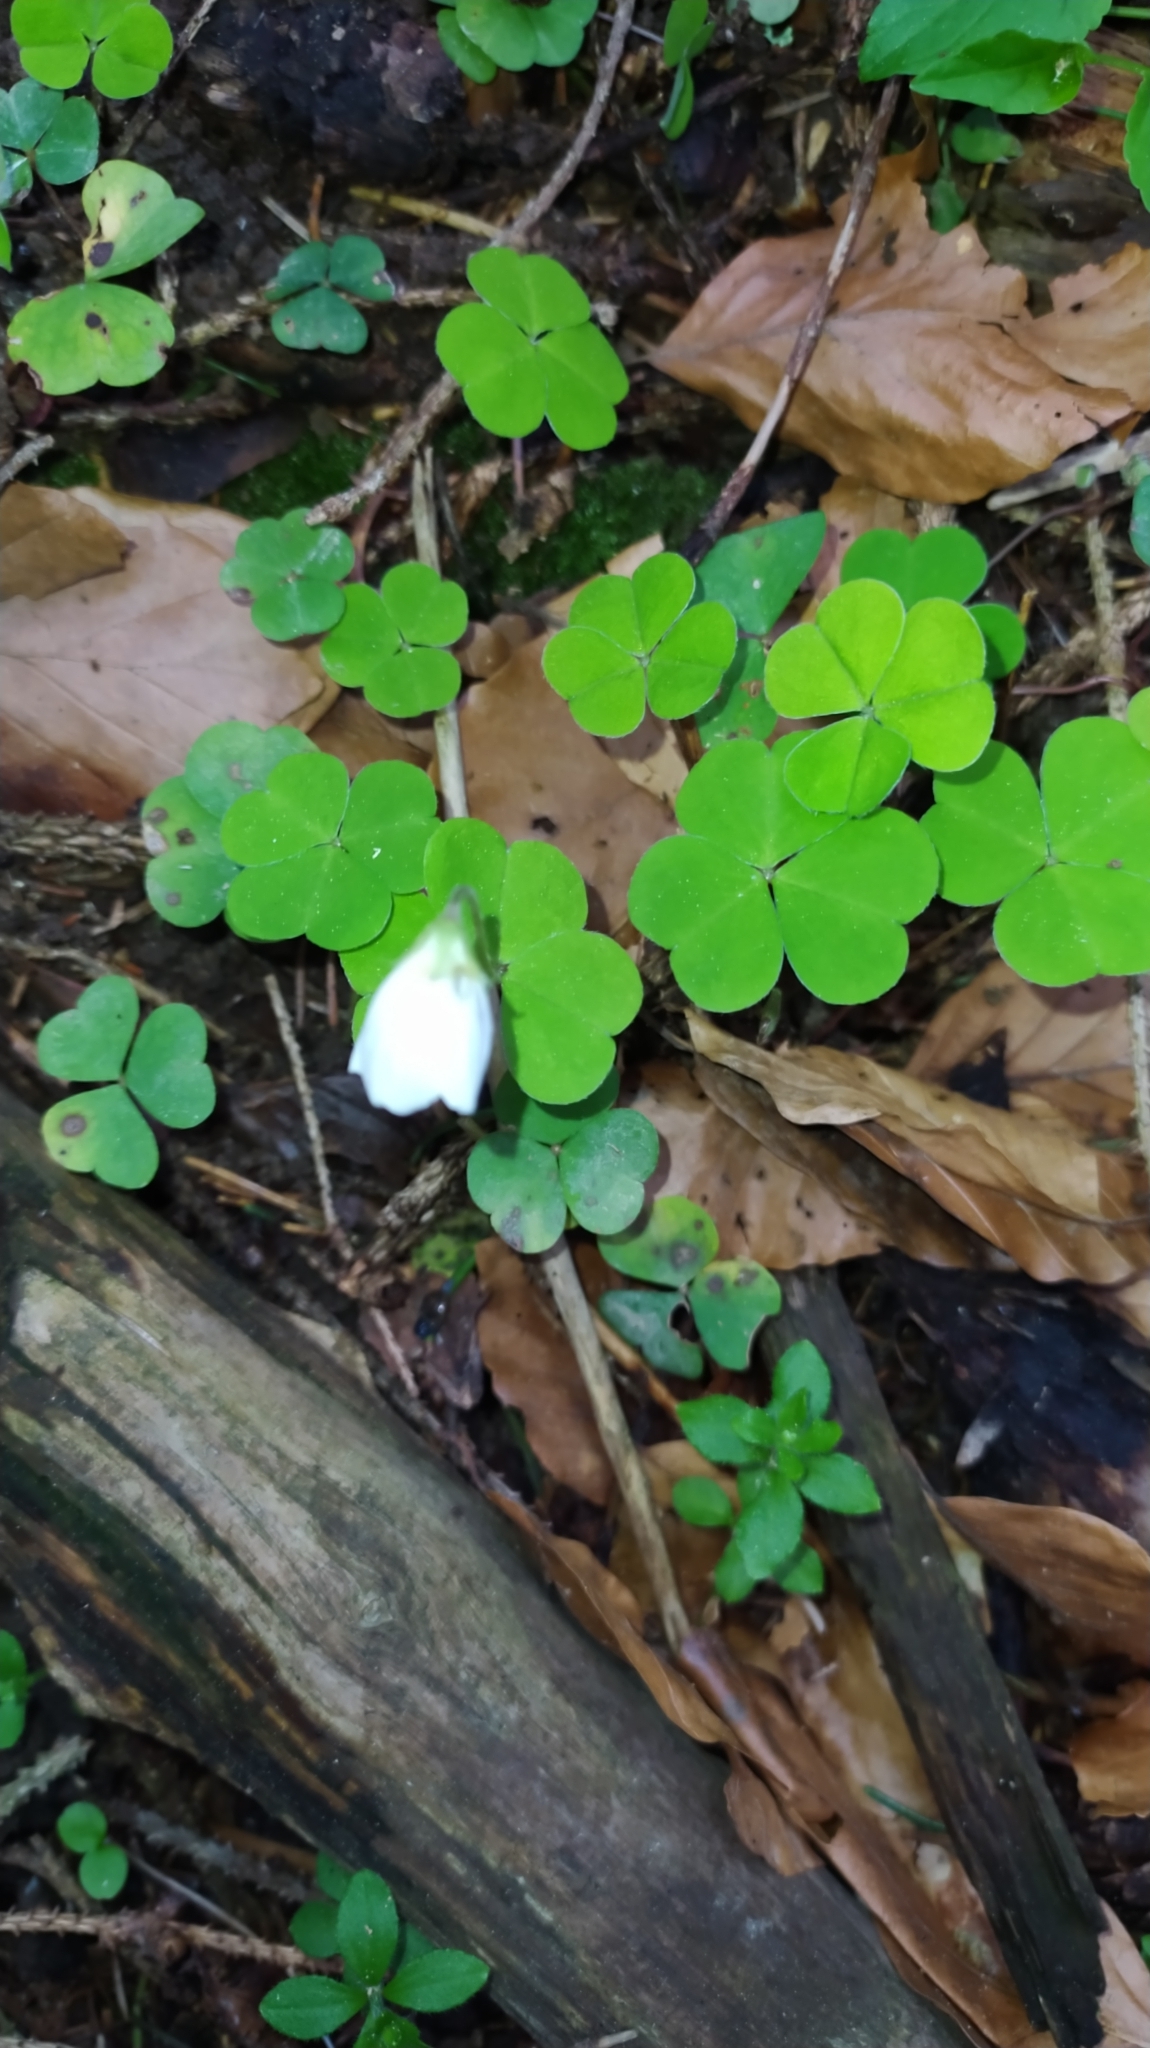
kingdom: Plantae
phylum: Tracheophyta
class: Magnoliopsida
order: Oxalidales
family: Oxalidaceae
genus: Oxalis
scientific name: Oxalis acetosella
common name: Wood-sorrel
